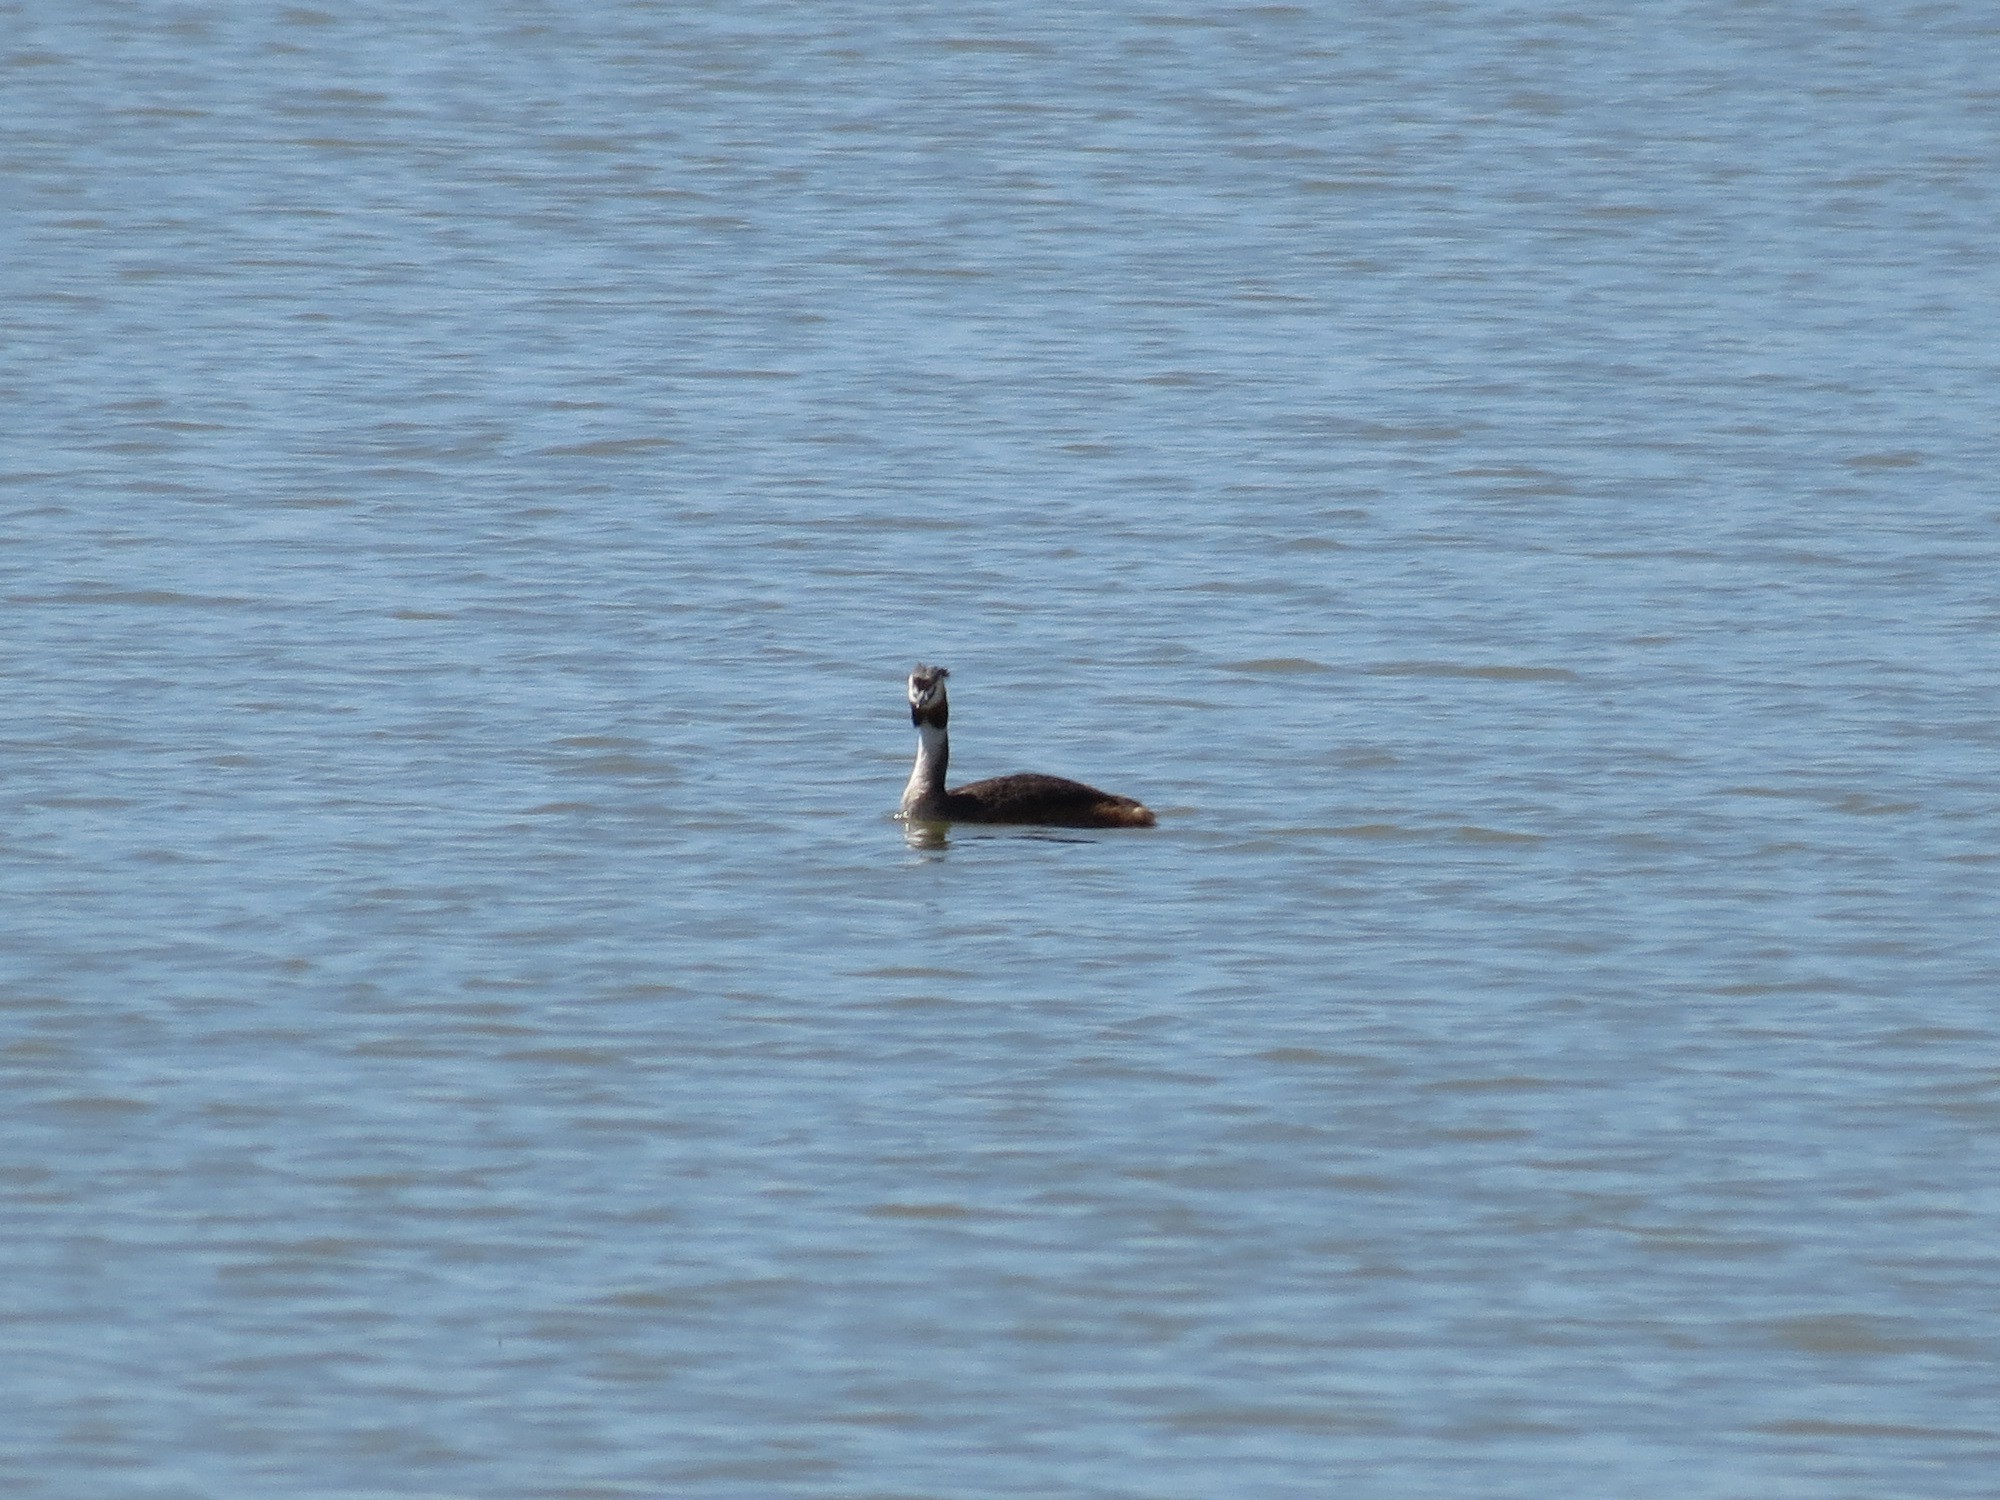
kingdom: Animalia
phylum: Chordata
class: Aves
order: Podicipediformes
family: Podicipedidae
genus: Podiceps
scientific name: Podiceps cristatus
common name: Great crested grebe
